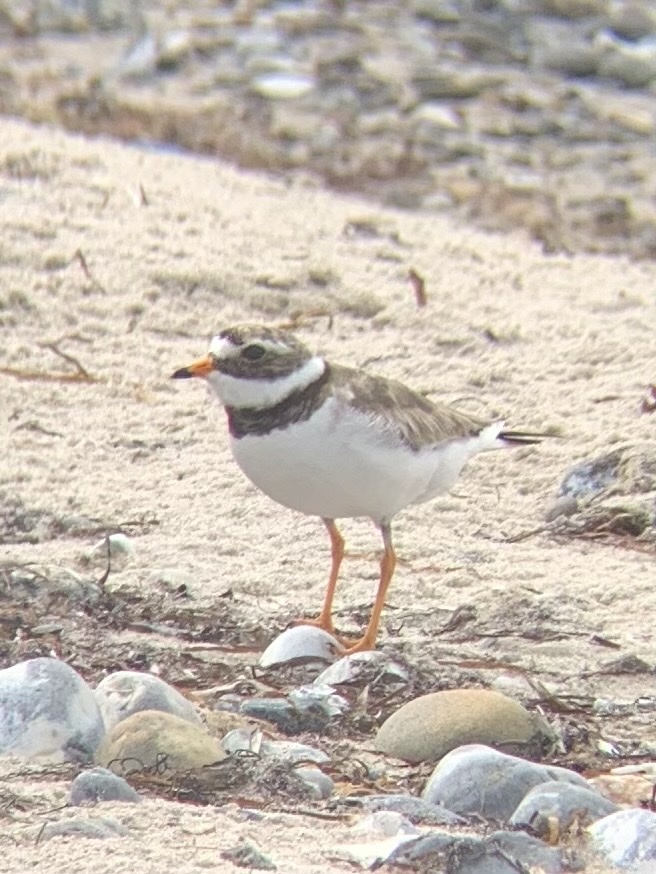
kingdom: Animalia
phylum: Chordata
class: Aves
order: Charadriiformes
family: Charadriidae
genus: Charadrius
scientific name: Charadrius hiaticula
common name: Common ringed plover
